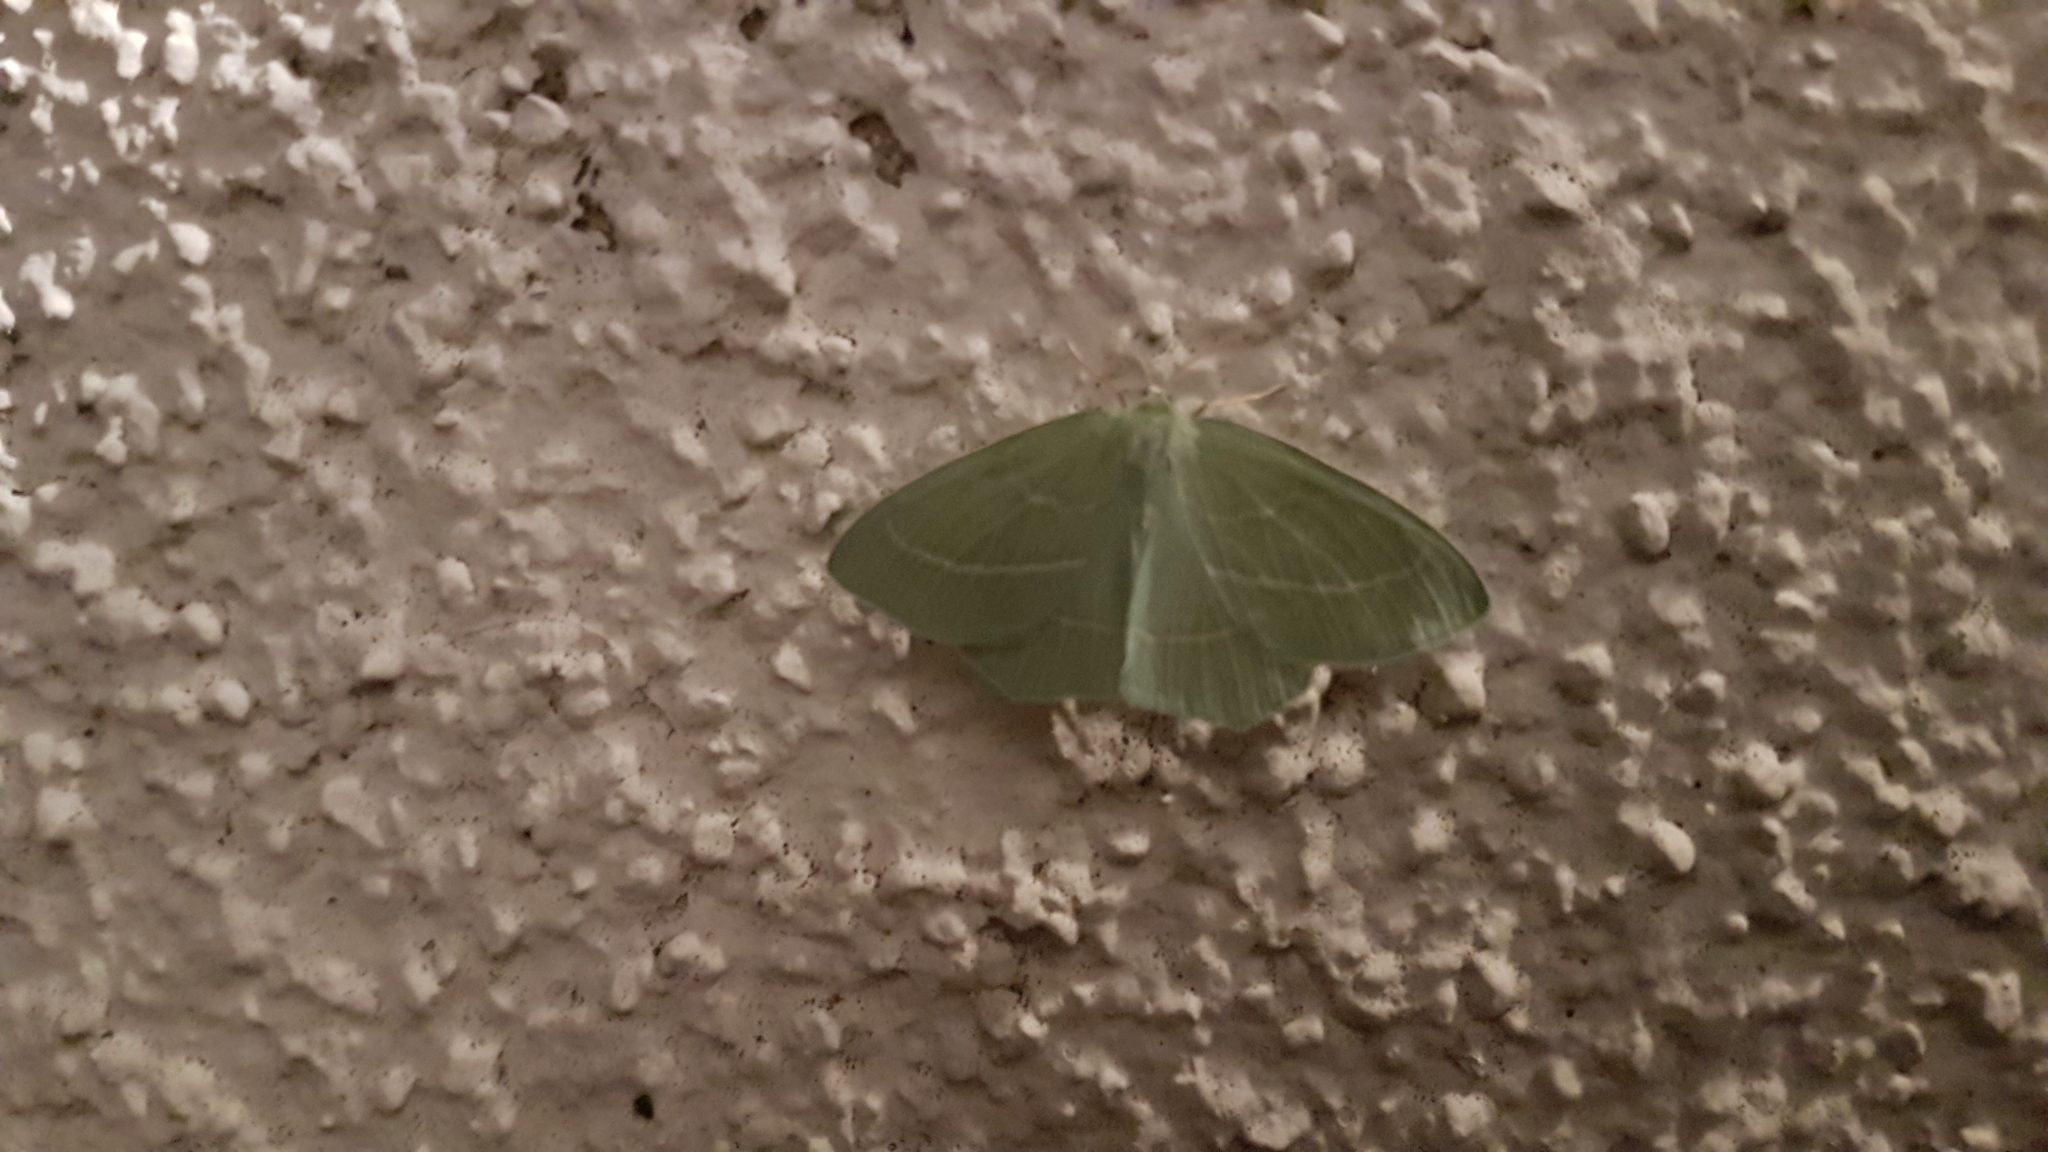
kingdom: Animalia
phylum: Arthropoda
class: Insecta
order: Lepidoptera
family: Geometridae
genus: Hemistola
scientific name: Hemistola chrysoprasaria
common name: Small emerald
